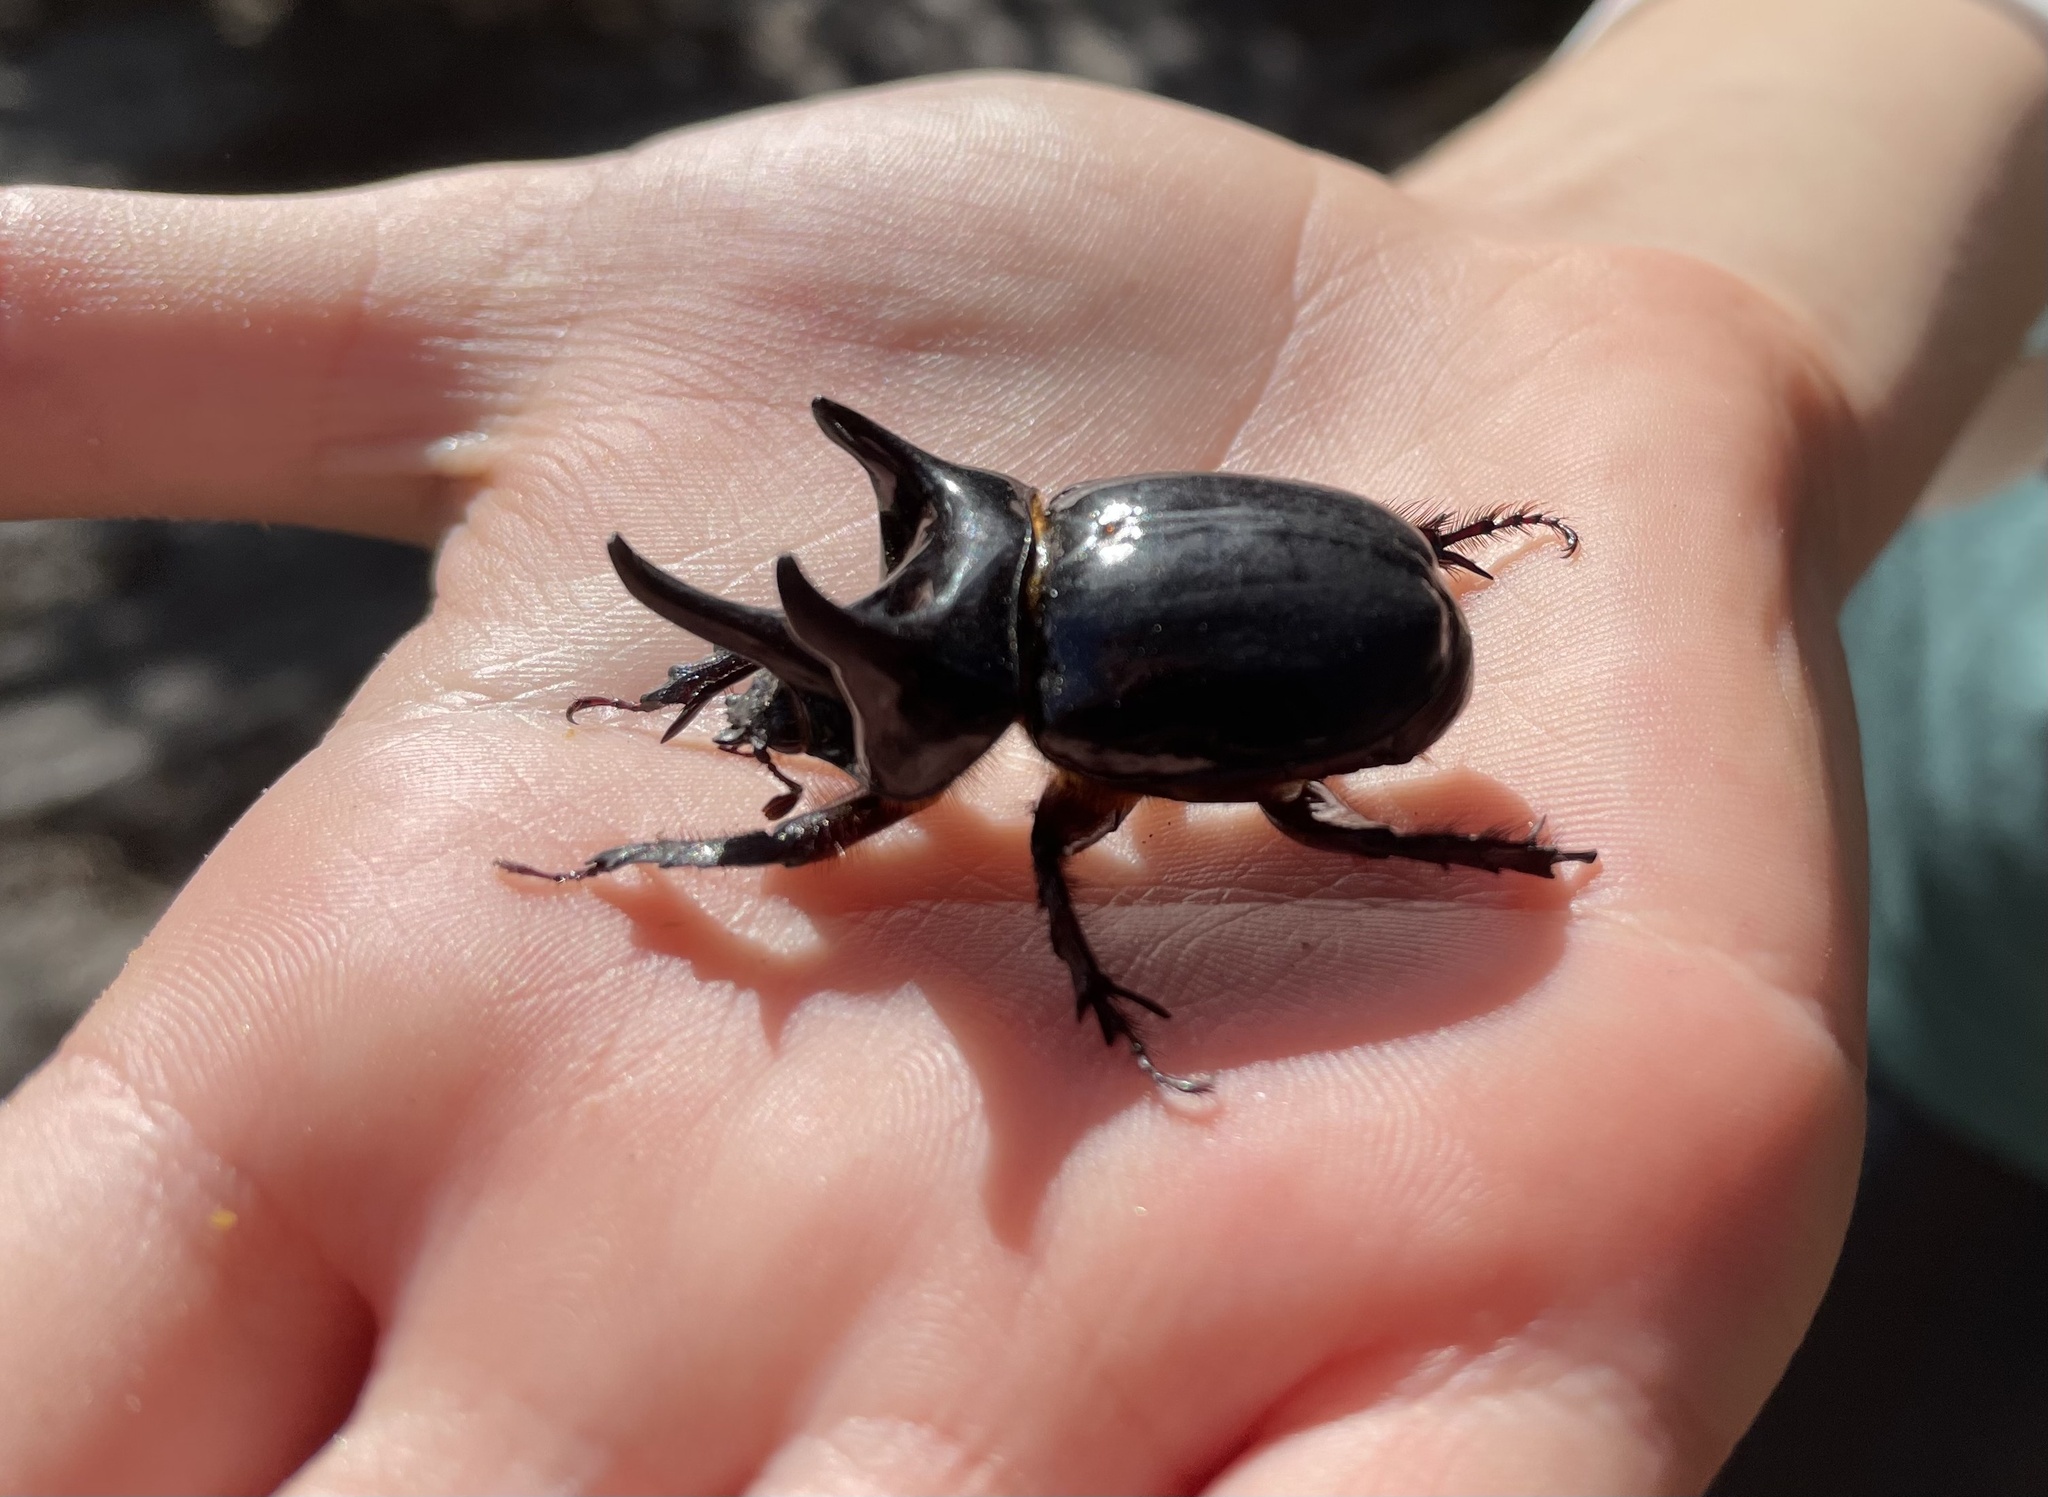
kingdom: Animalia
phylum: Arthropoda
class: Insecta
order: Coleoptera
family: Scarabaeidae
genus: Strategus
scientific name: Strategus antaeus
